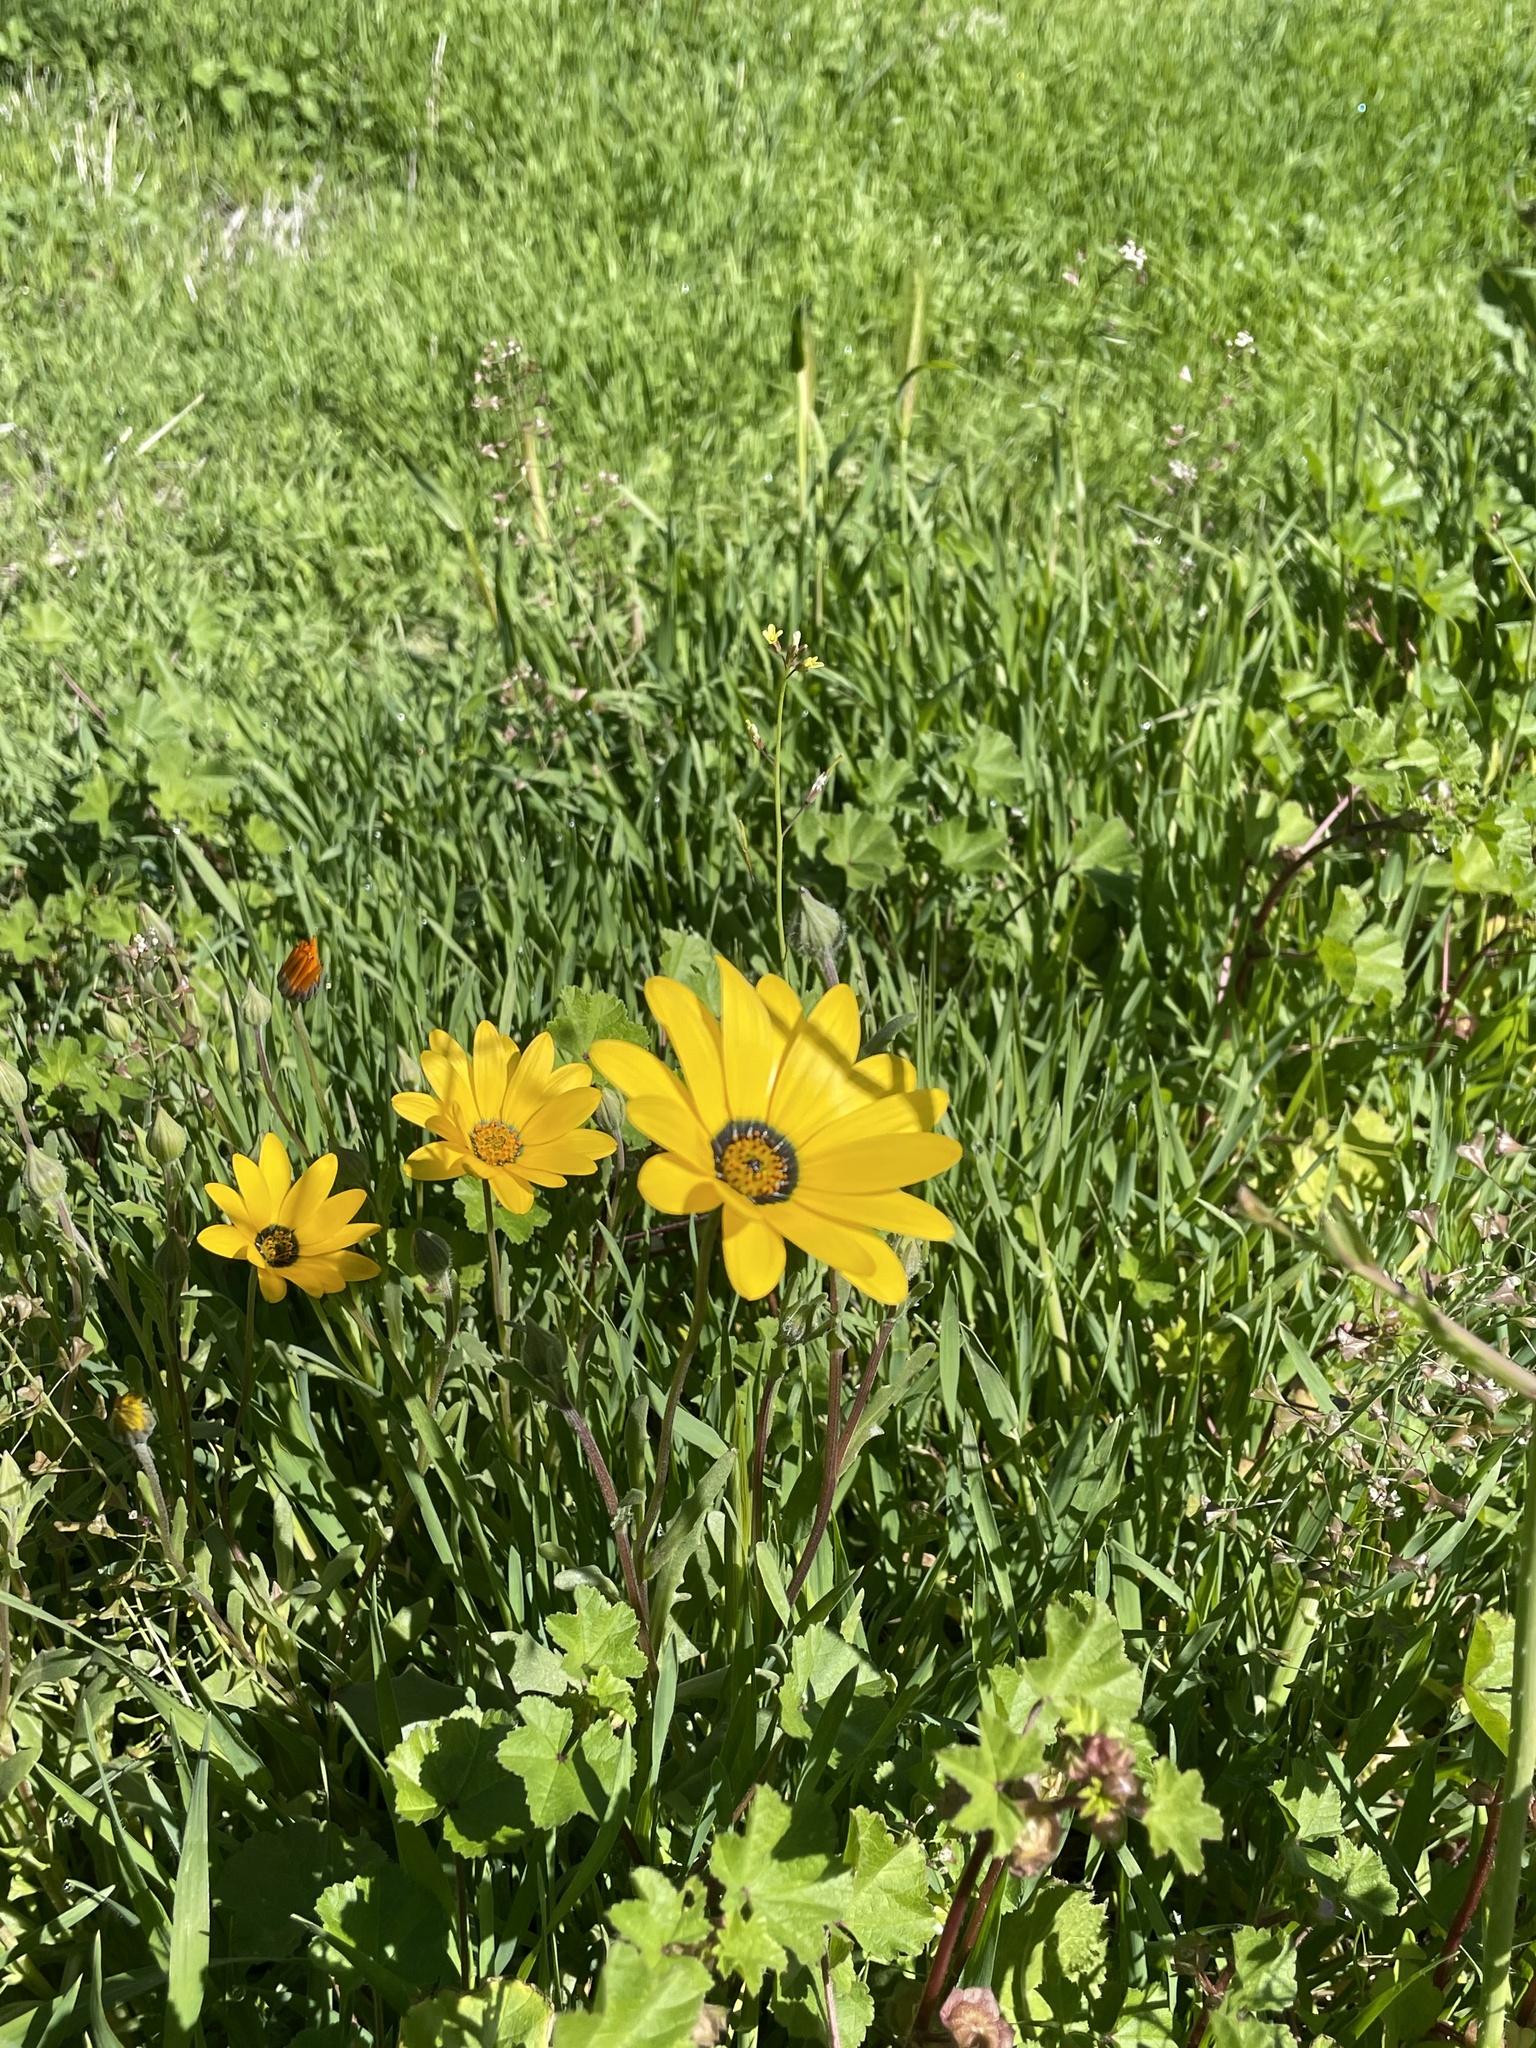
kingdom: Plantae
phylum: Tracheophyta
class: Magnoliopsida
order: Asterales
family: Asteraceae
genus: Dimorphotheca
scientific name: Dimorphotheca sinuata
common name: Glandular cape marigold
